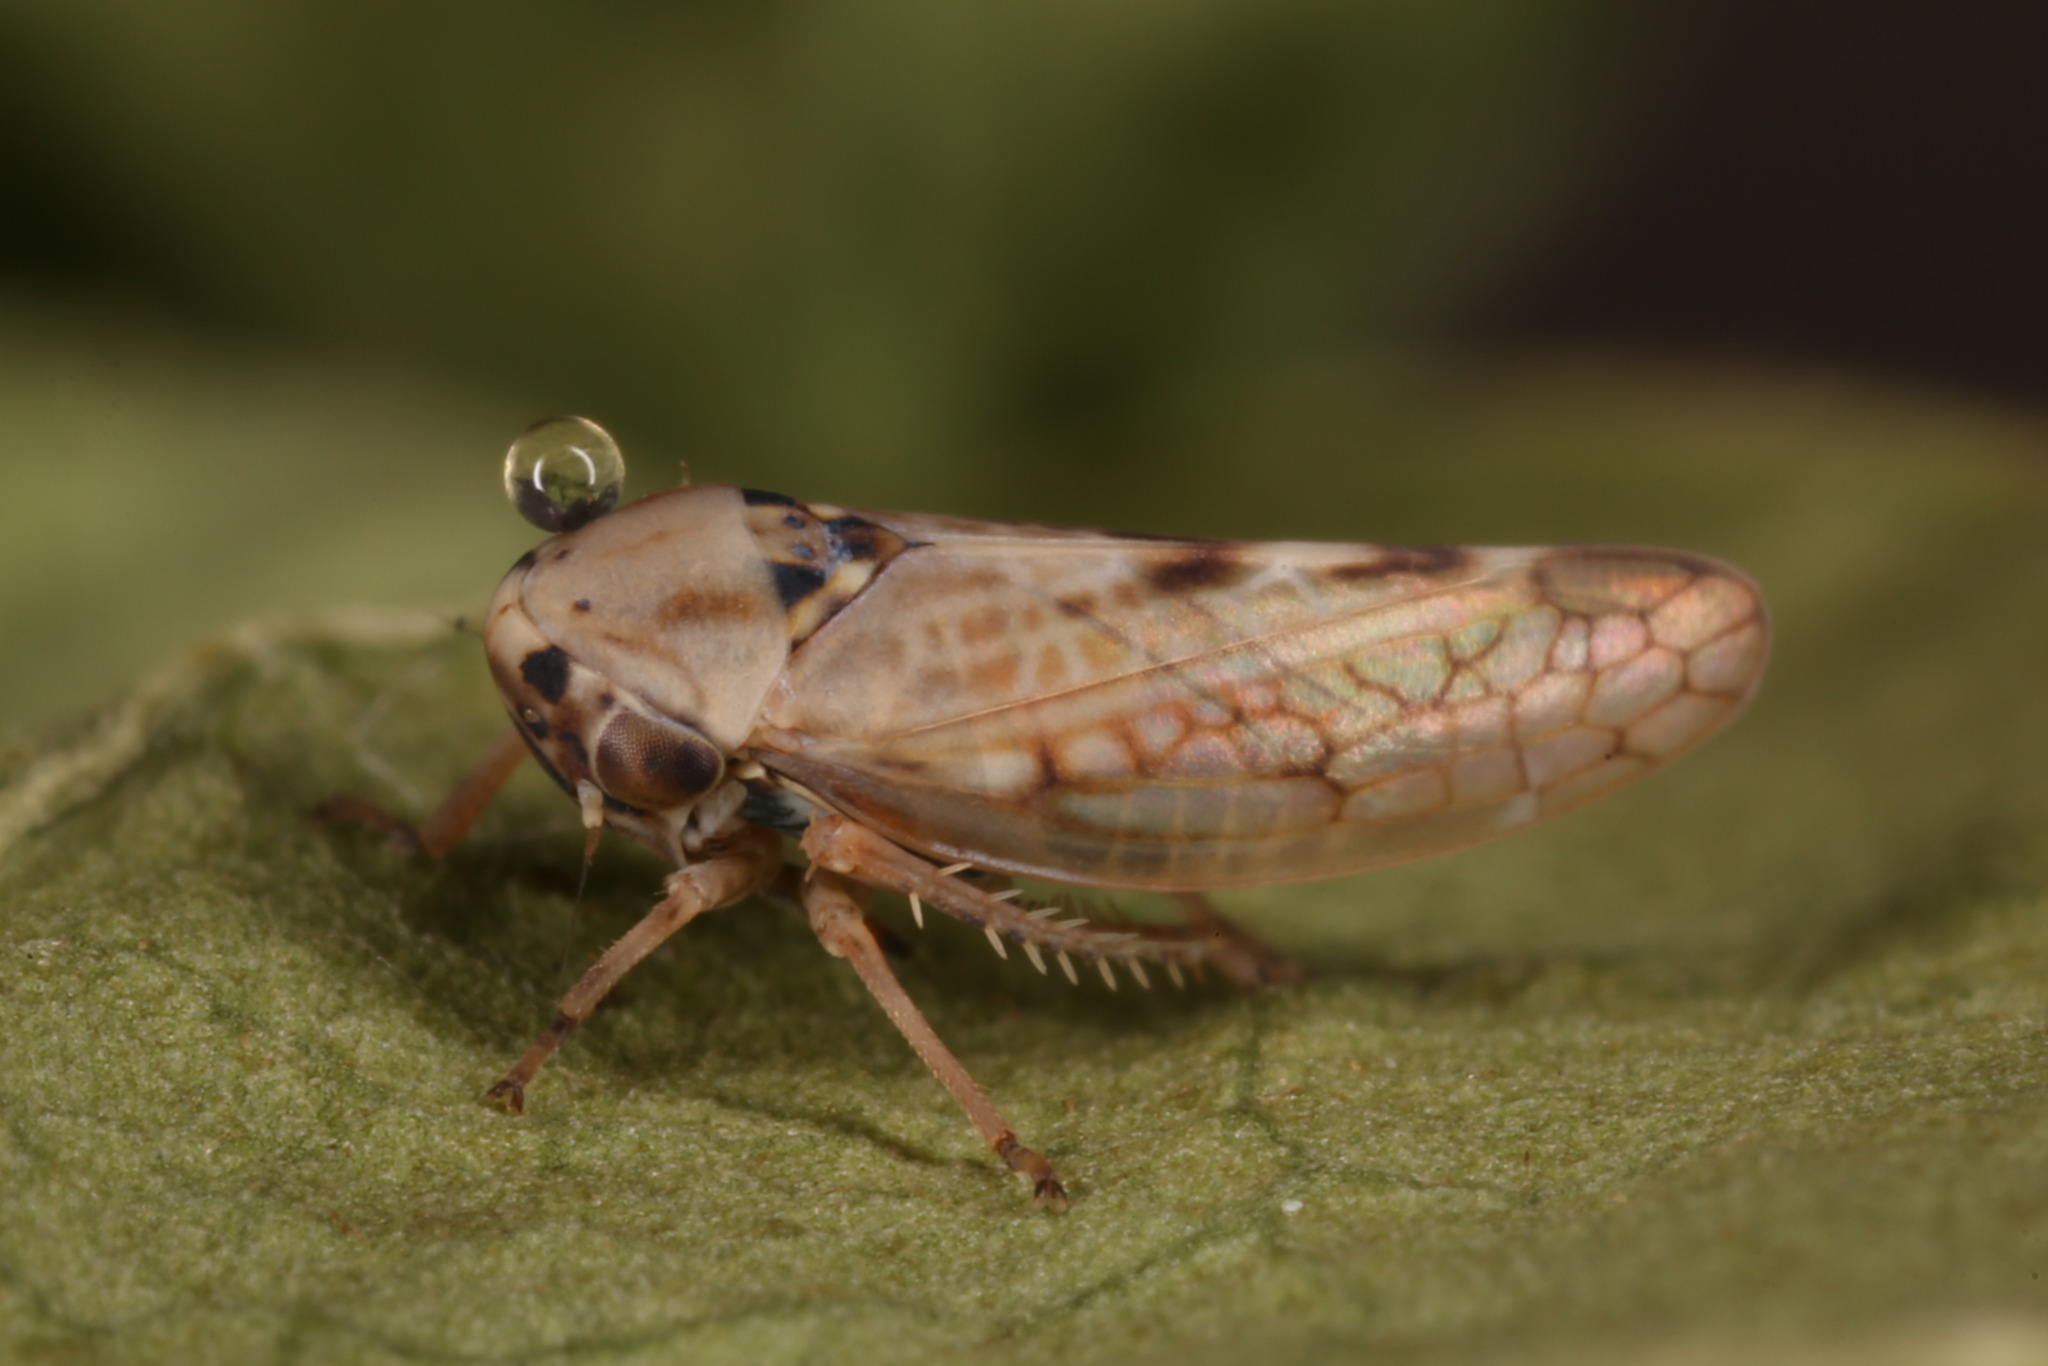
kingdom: Animalia
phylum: Arthropoda
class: Insecta
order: Hemiptera
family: Cicadellidae
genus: Dryodurgades
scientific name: Dryodurgades reticulatus
